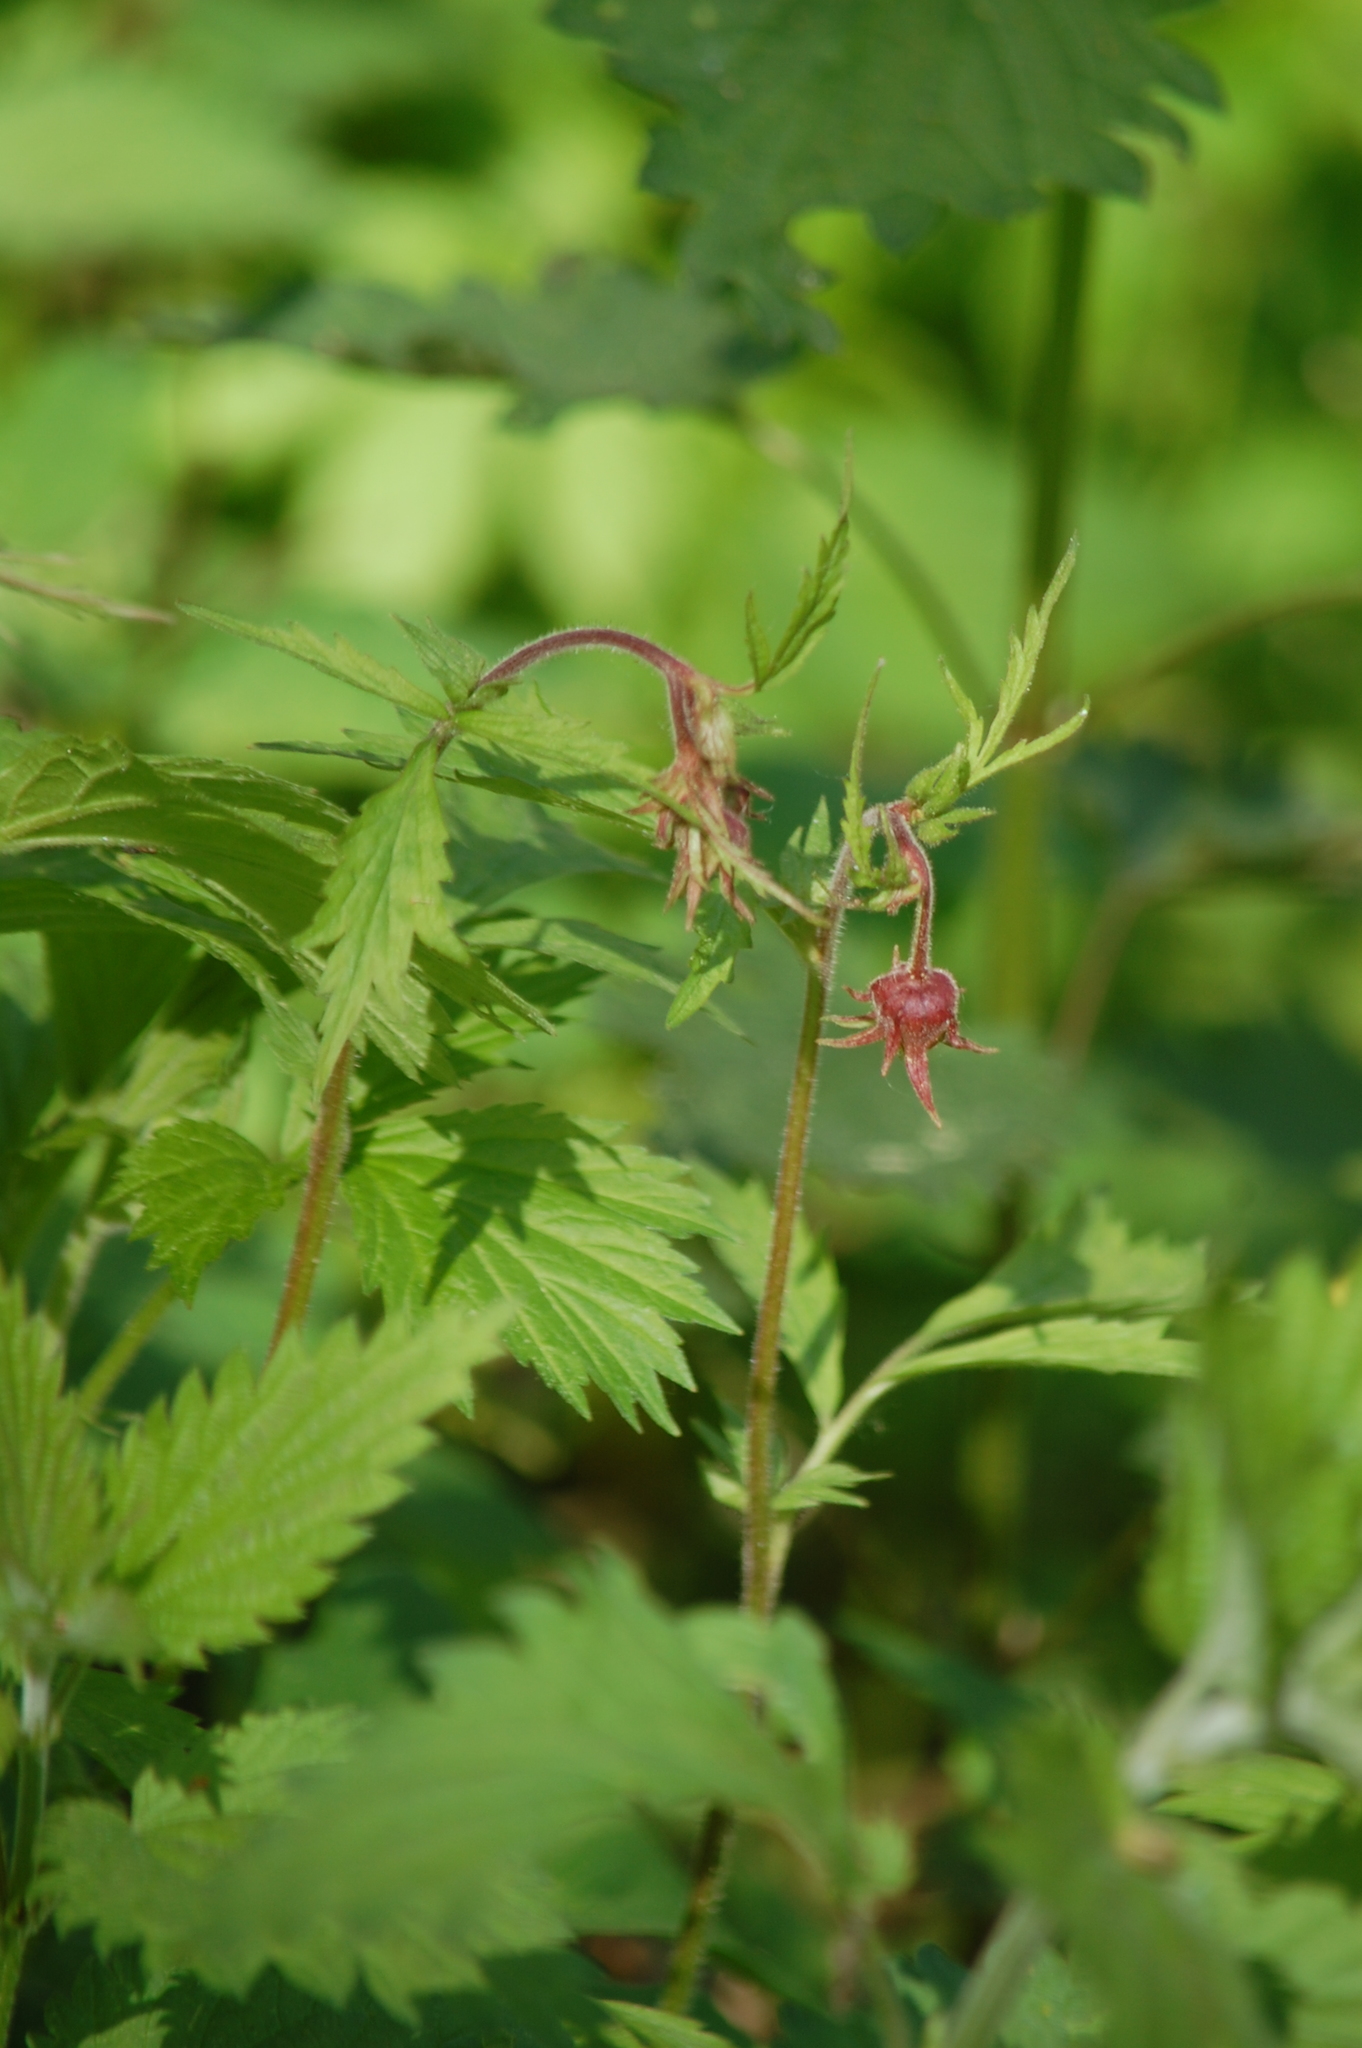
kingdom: Plantae
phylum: Tracheophyta
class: Magnoliopsida
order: Rosales
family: Rosaceae
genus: Geum
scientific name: Geum rivale
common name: Water avens
